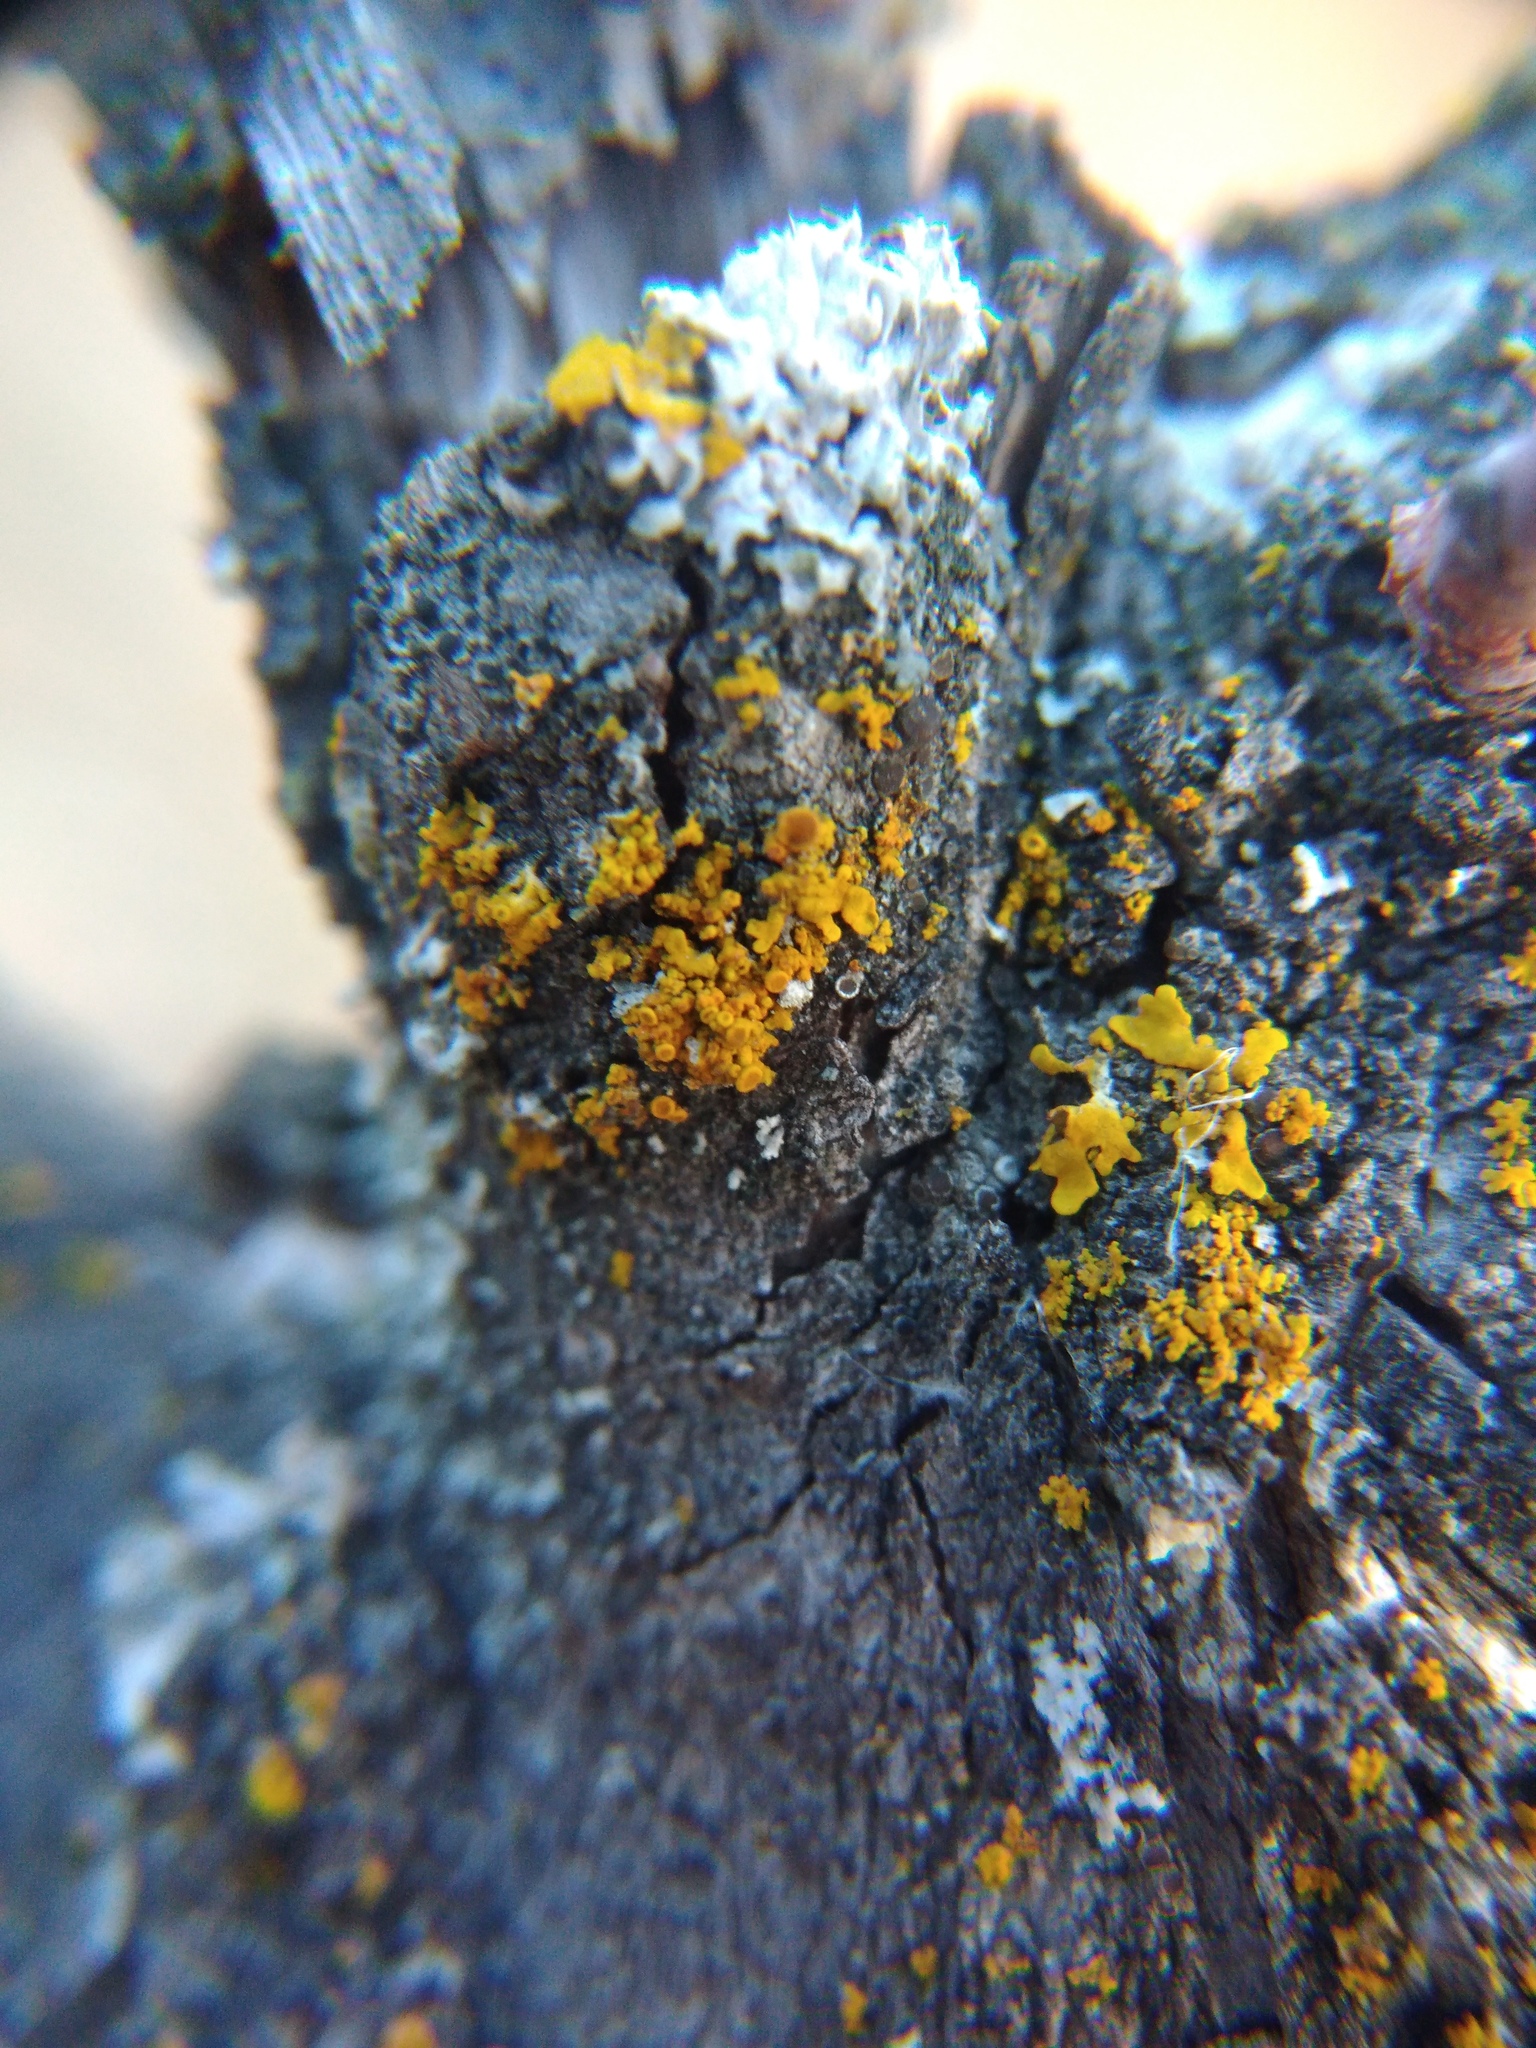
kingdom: Fungi
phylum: Ascomycota
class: Lecanoromycetes
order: Teloschistales
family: Teloschistaceae
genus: Polycauliona
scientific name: Polycauliona polycarpa
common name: Pin-cushion sunburst lichen
